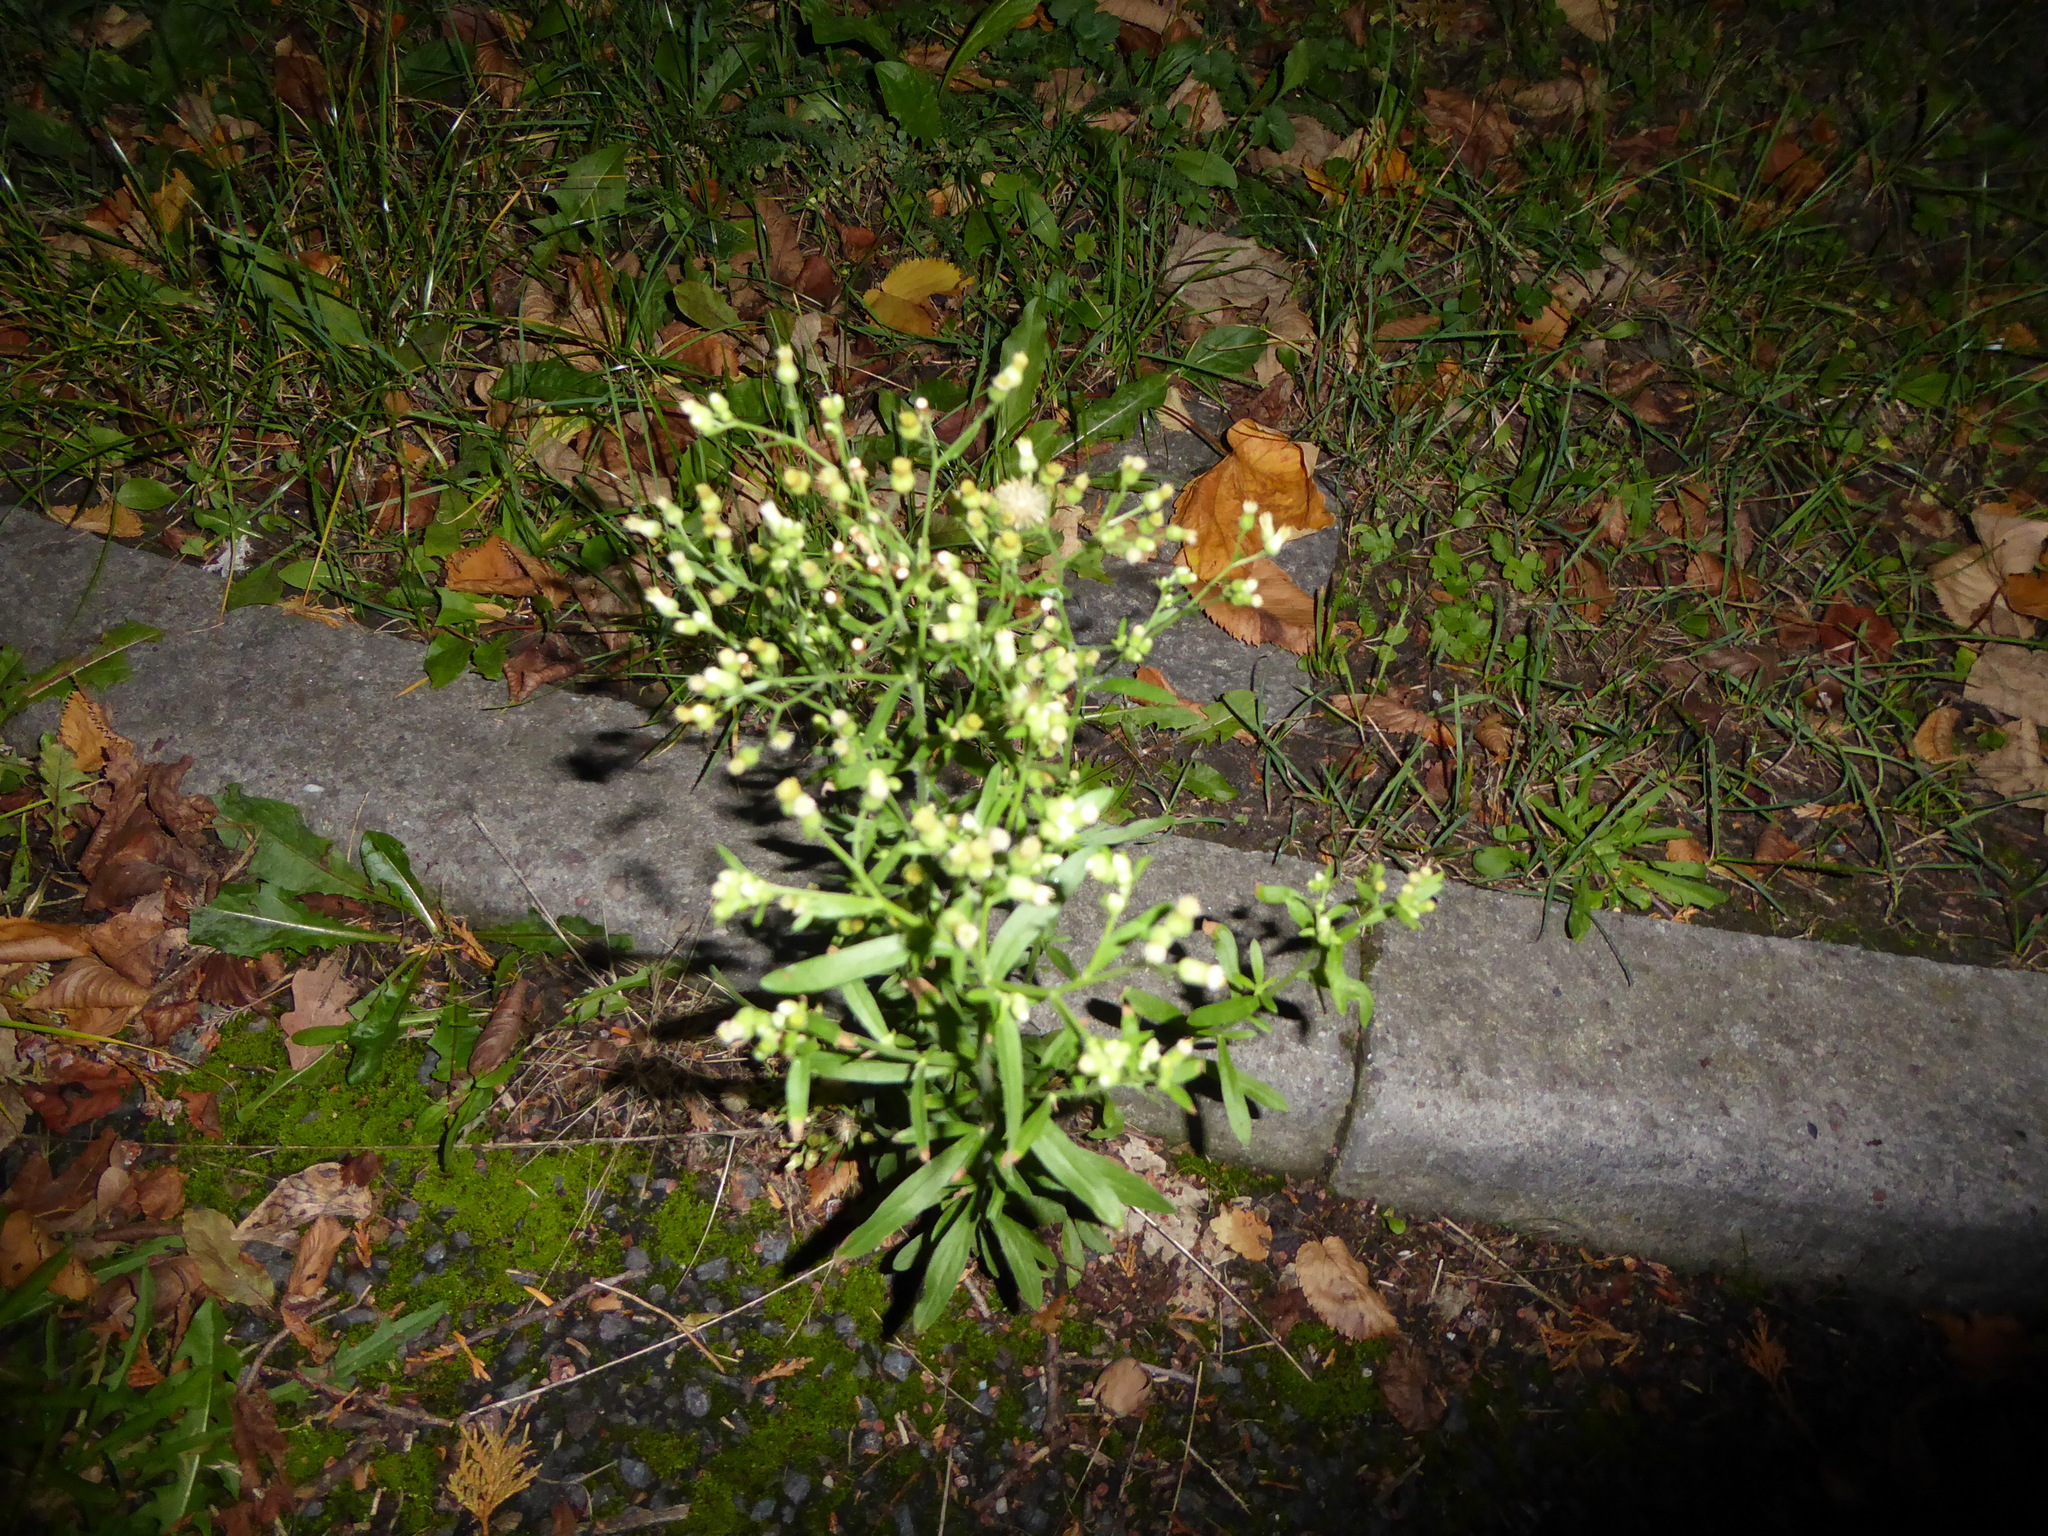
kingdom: Plantae
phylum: Tracheophyta
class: Magnoliopsida
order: Asterales
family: Asteraceae
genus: Erigeron
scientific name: Erigeron sumatrensis
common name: Daisy
